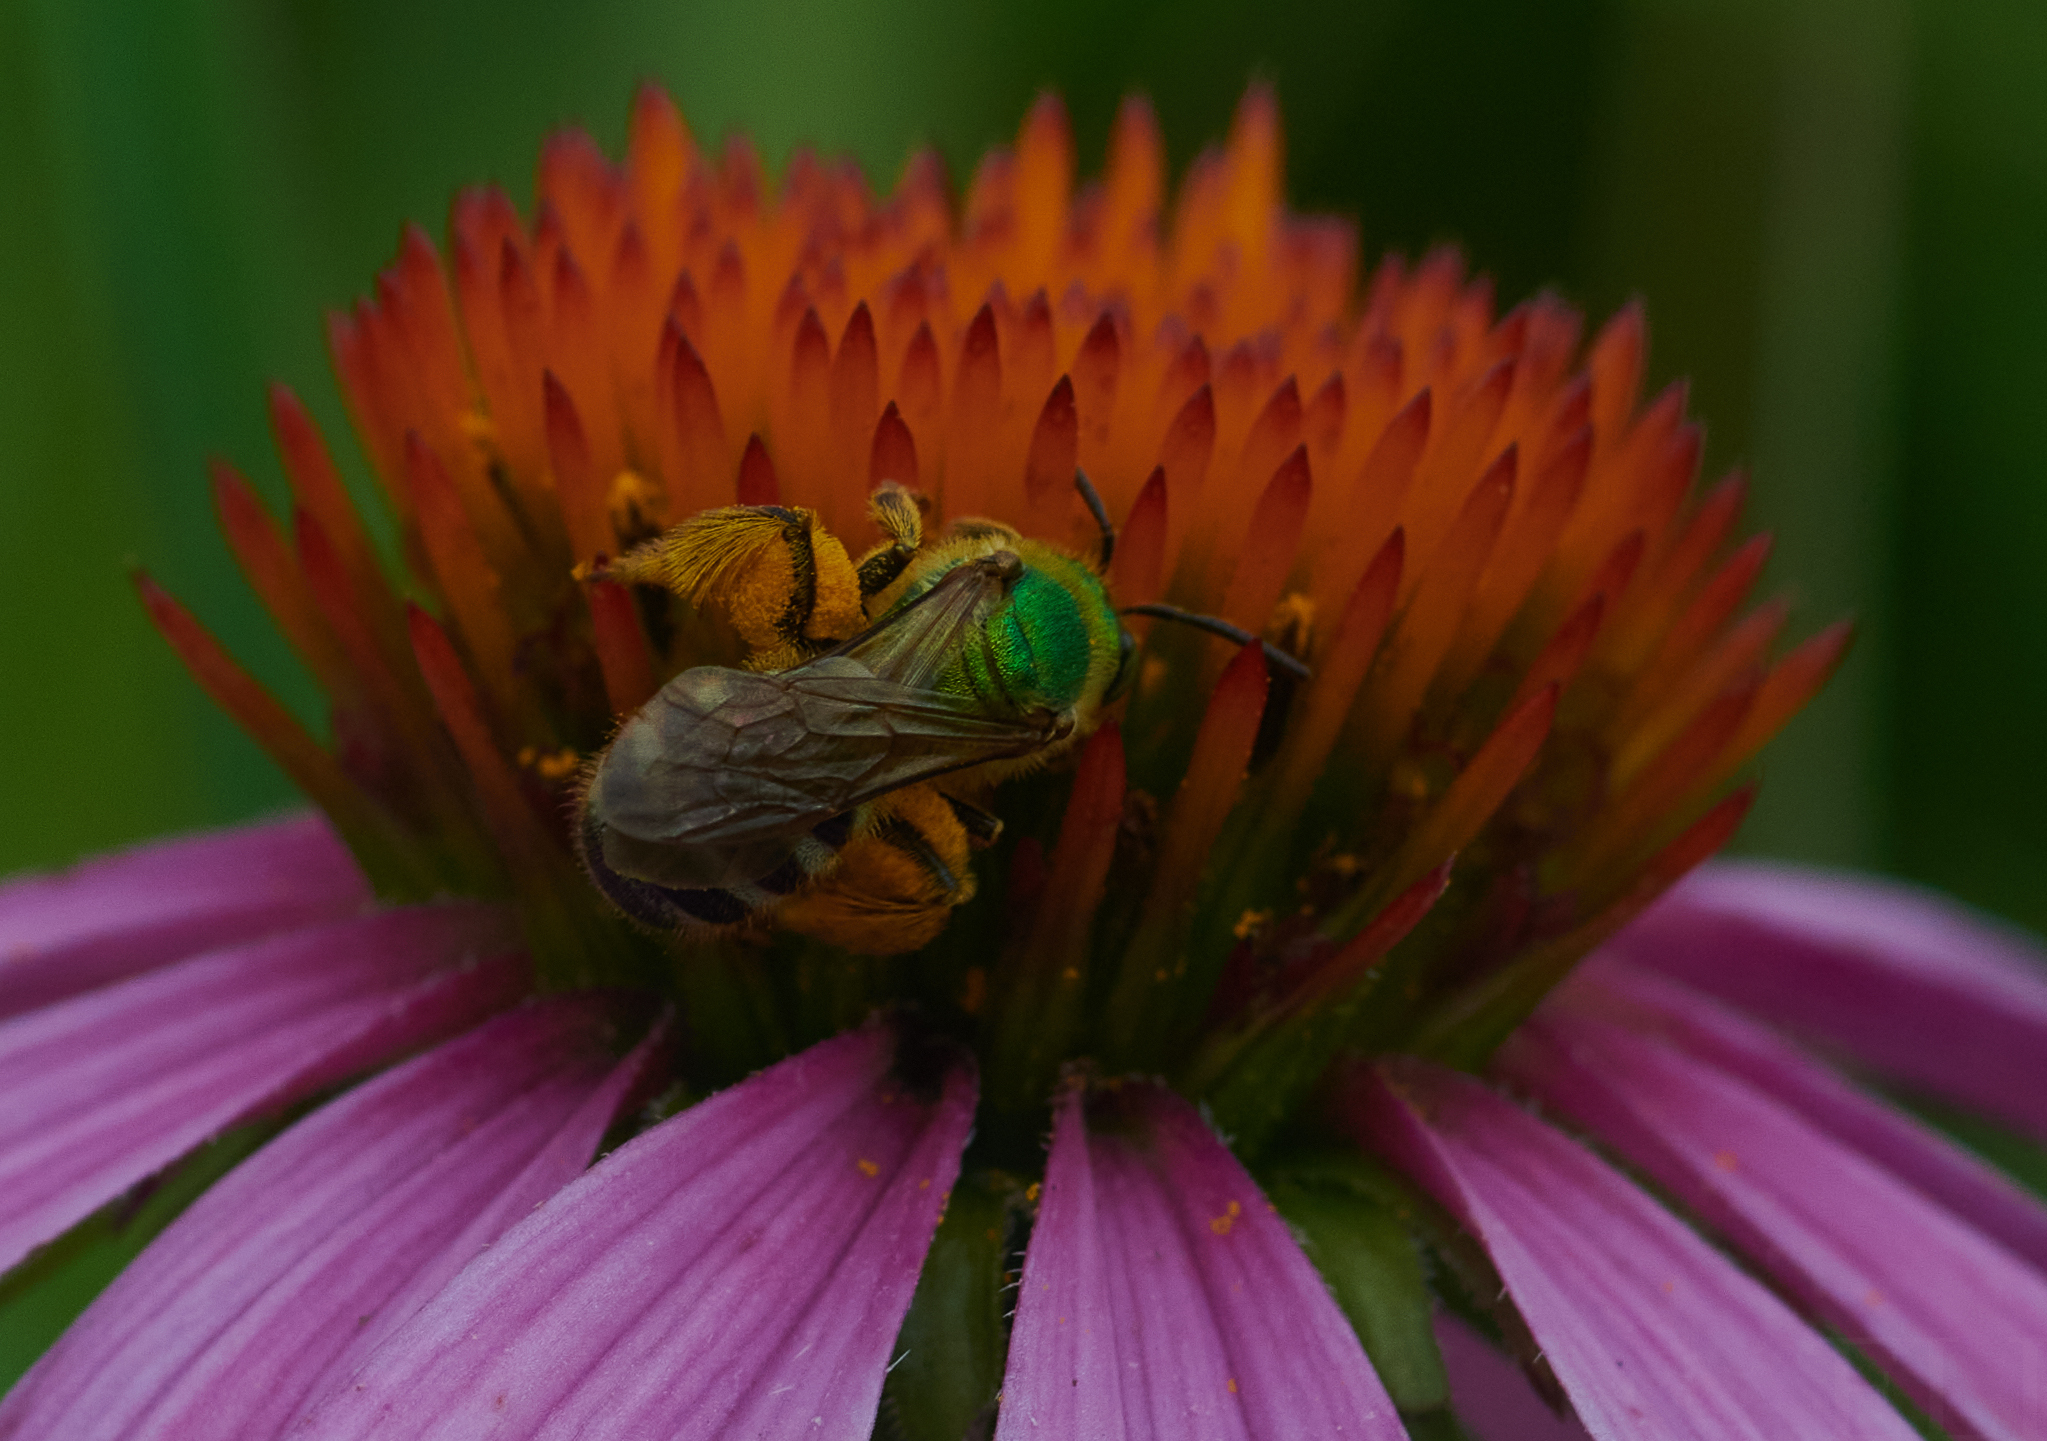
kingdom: Animalia
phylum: Arthropoda
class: Insecta
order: Hymenoptera
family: Halictidae
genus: Agapostemon
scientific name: Agapostemon virescens
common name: Bicolored striped sweat bee
